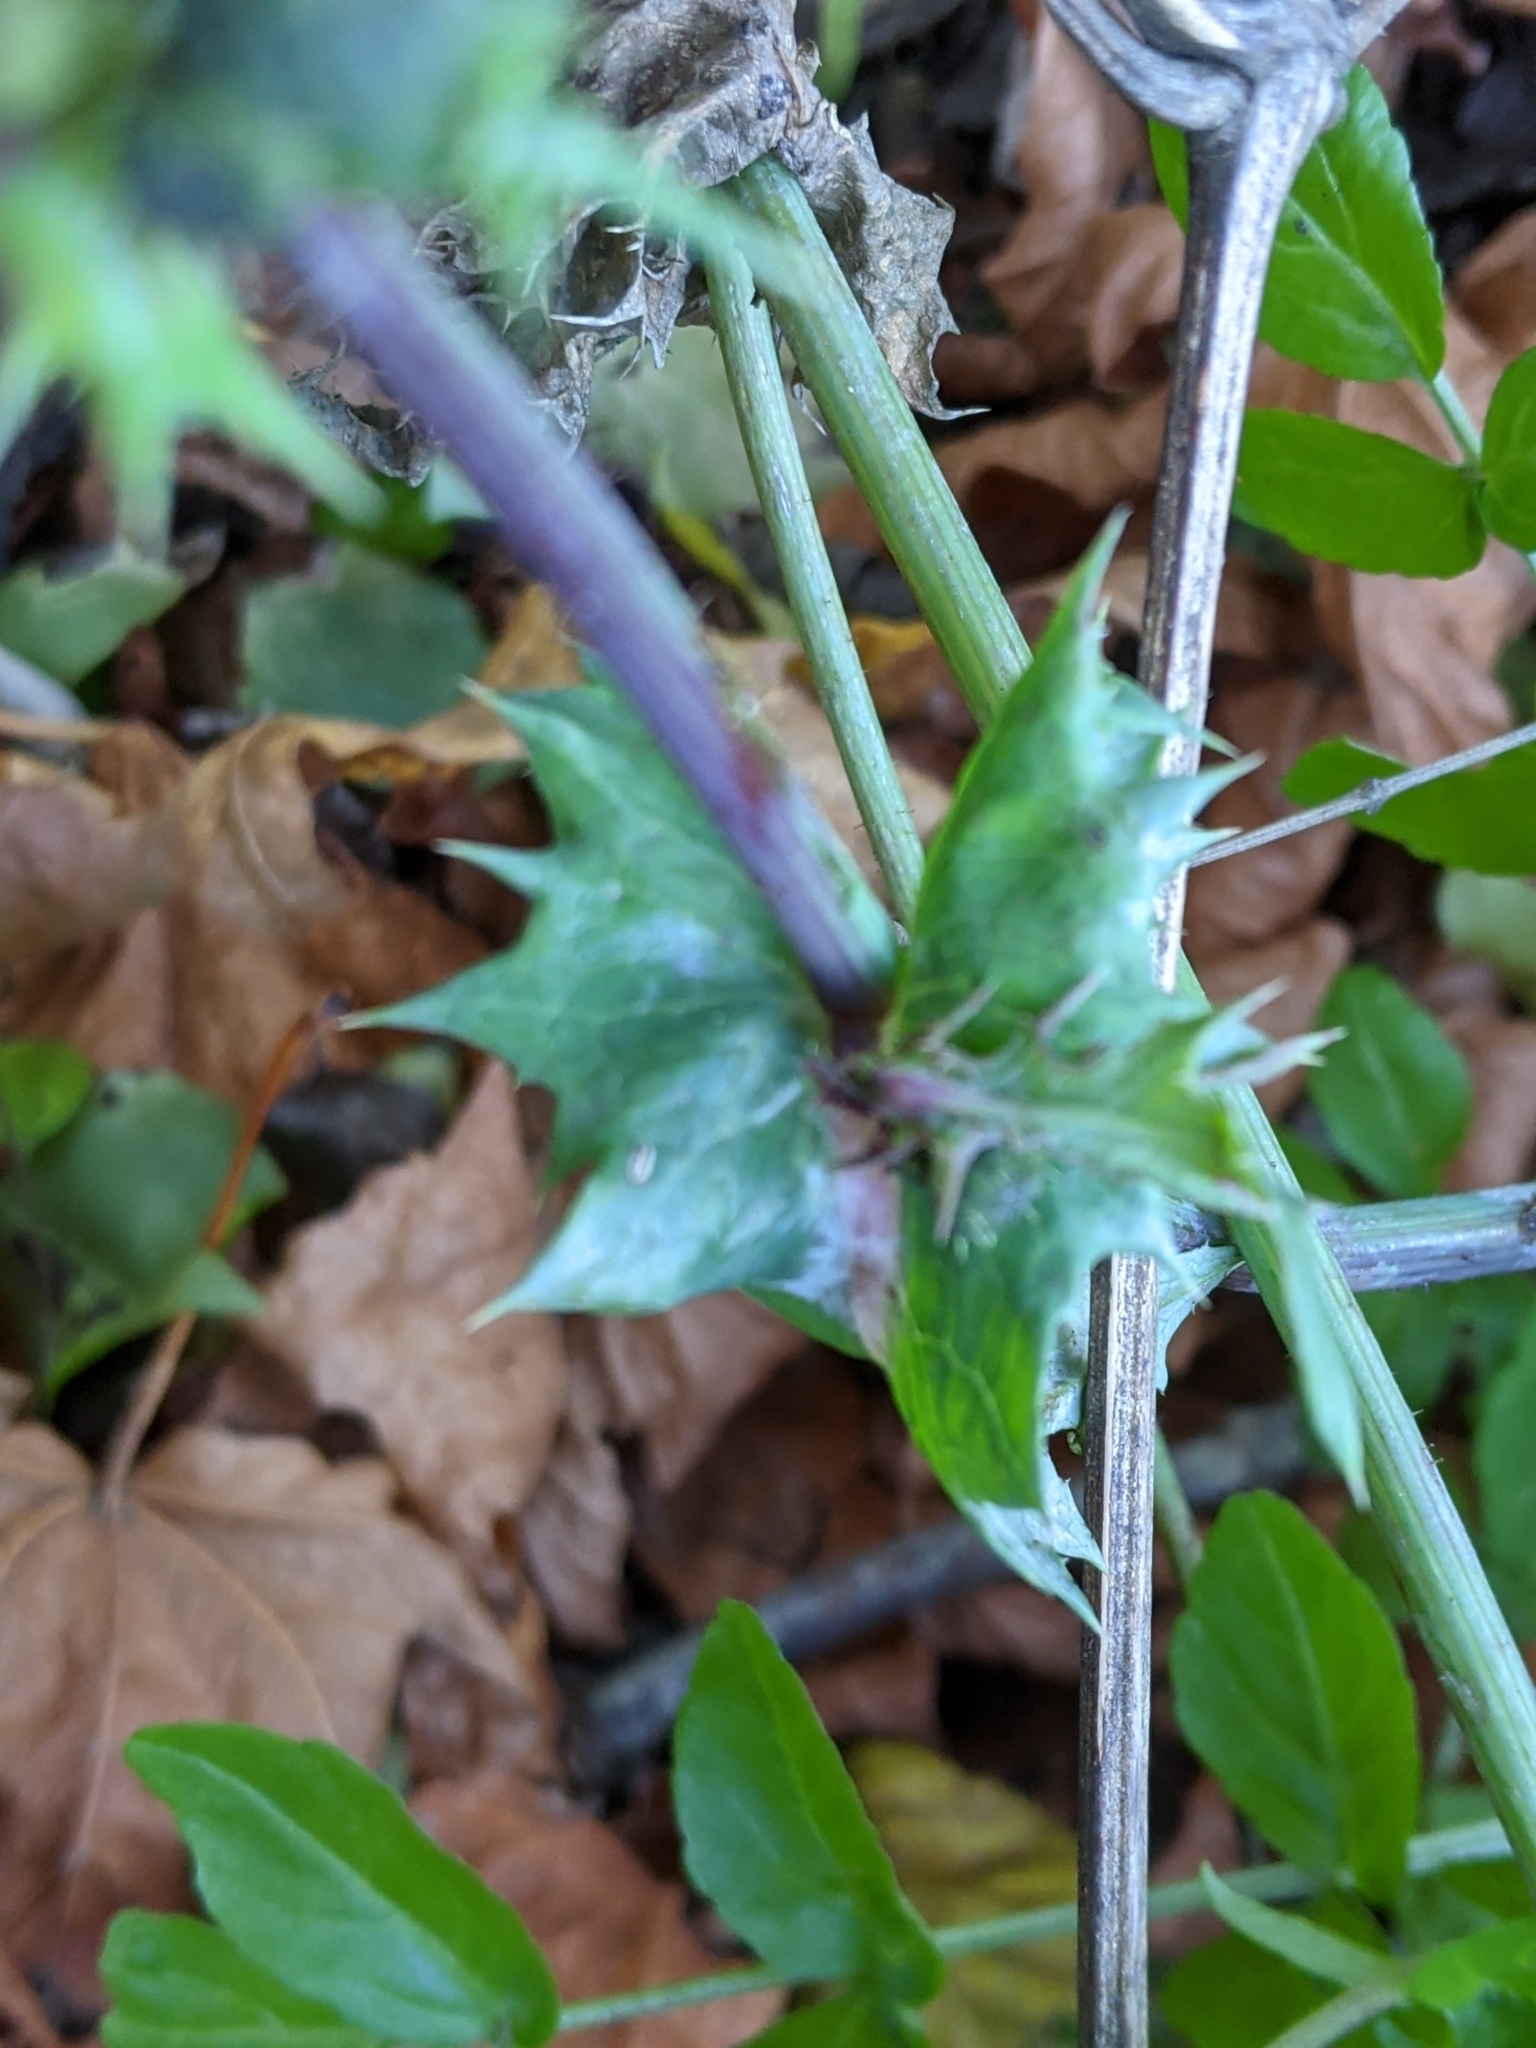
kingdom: Plantae
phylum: Tracheophyta
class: Magnoliopsida
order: Asterales
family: Asteraceae
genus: Sonchus
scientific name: Sonchus asper
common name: Prickly sow-thistle
